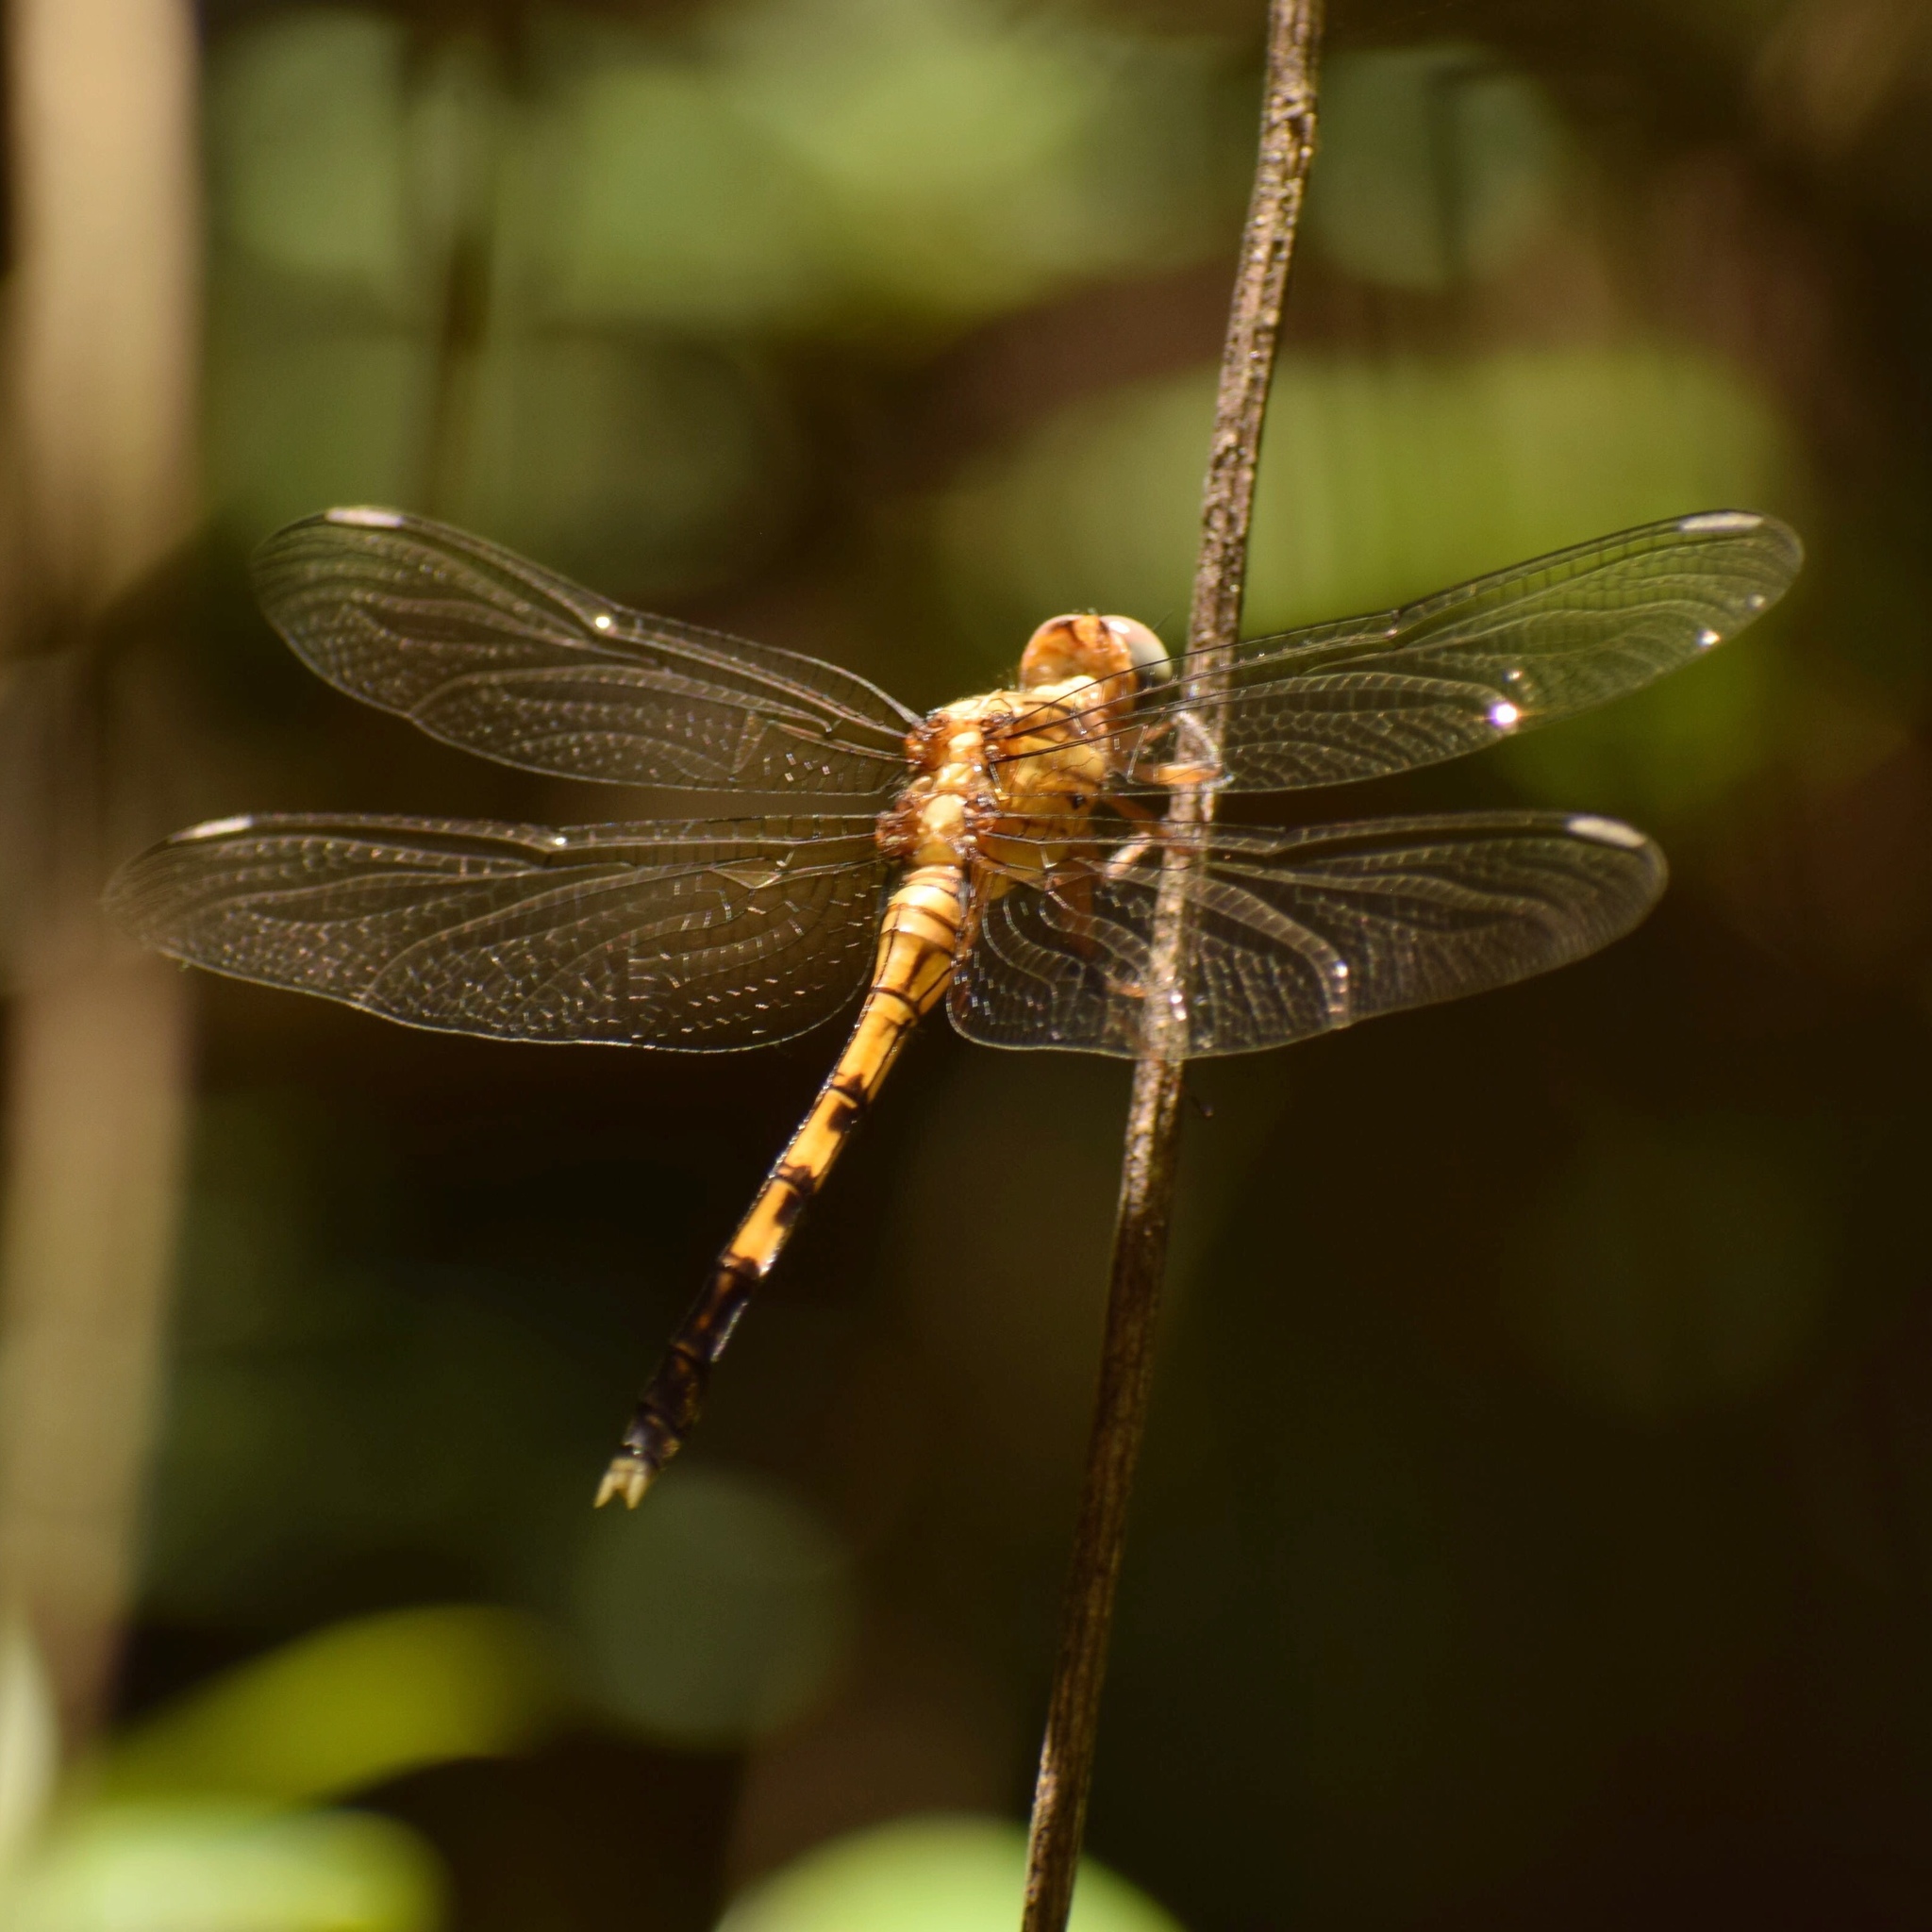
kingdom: Animalia
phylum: Arthropoda
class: Insecta
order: Odonata
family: Libellulidae
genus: Orthetrum
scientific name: Orthetrum julia
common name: Julia skimmer
